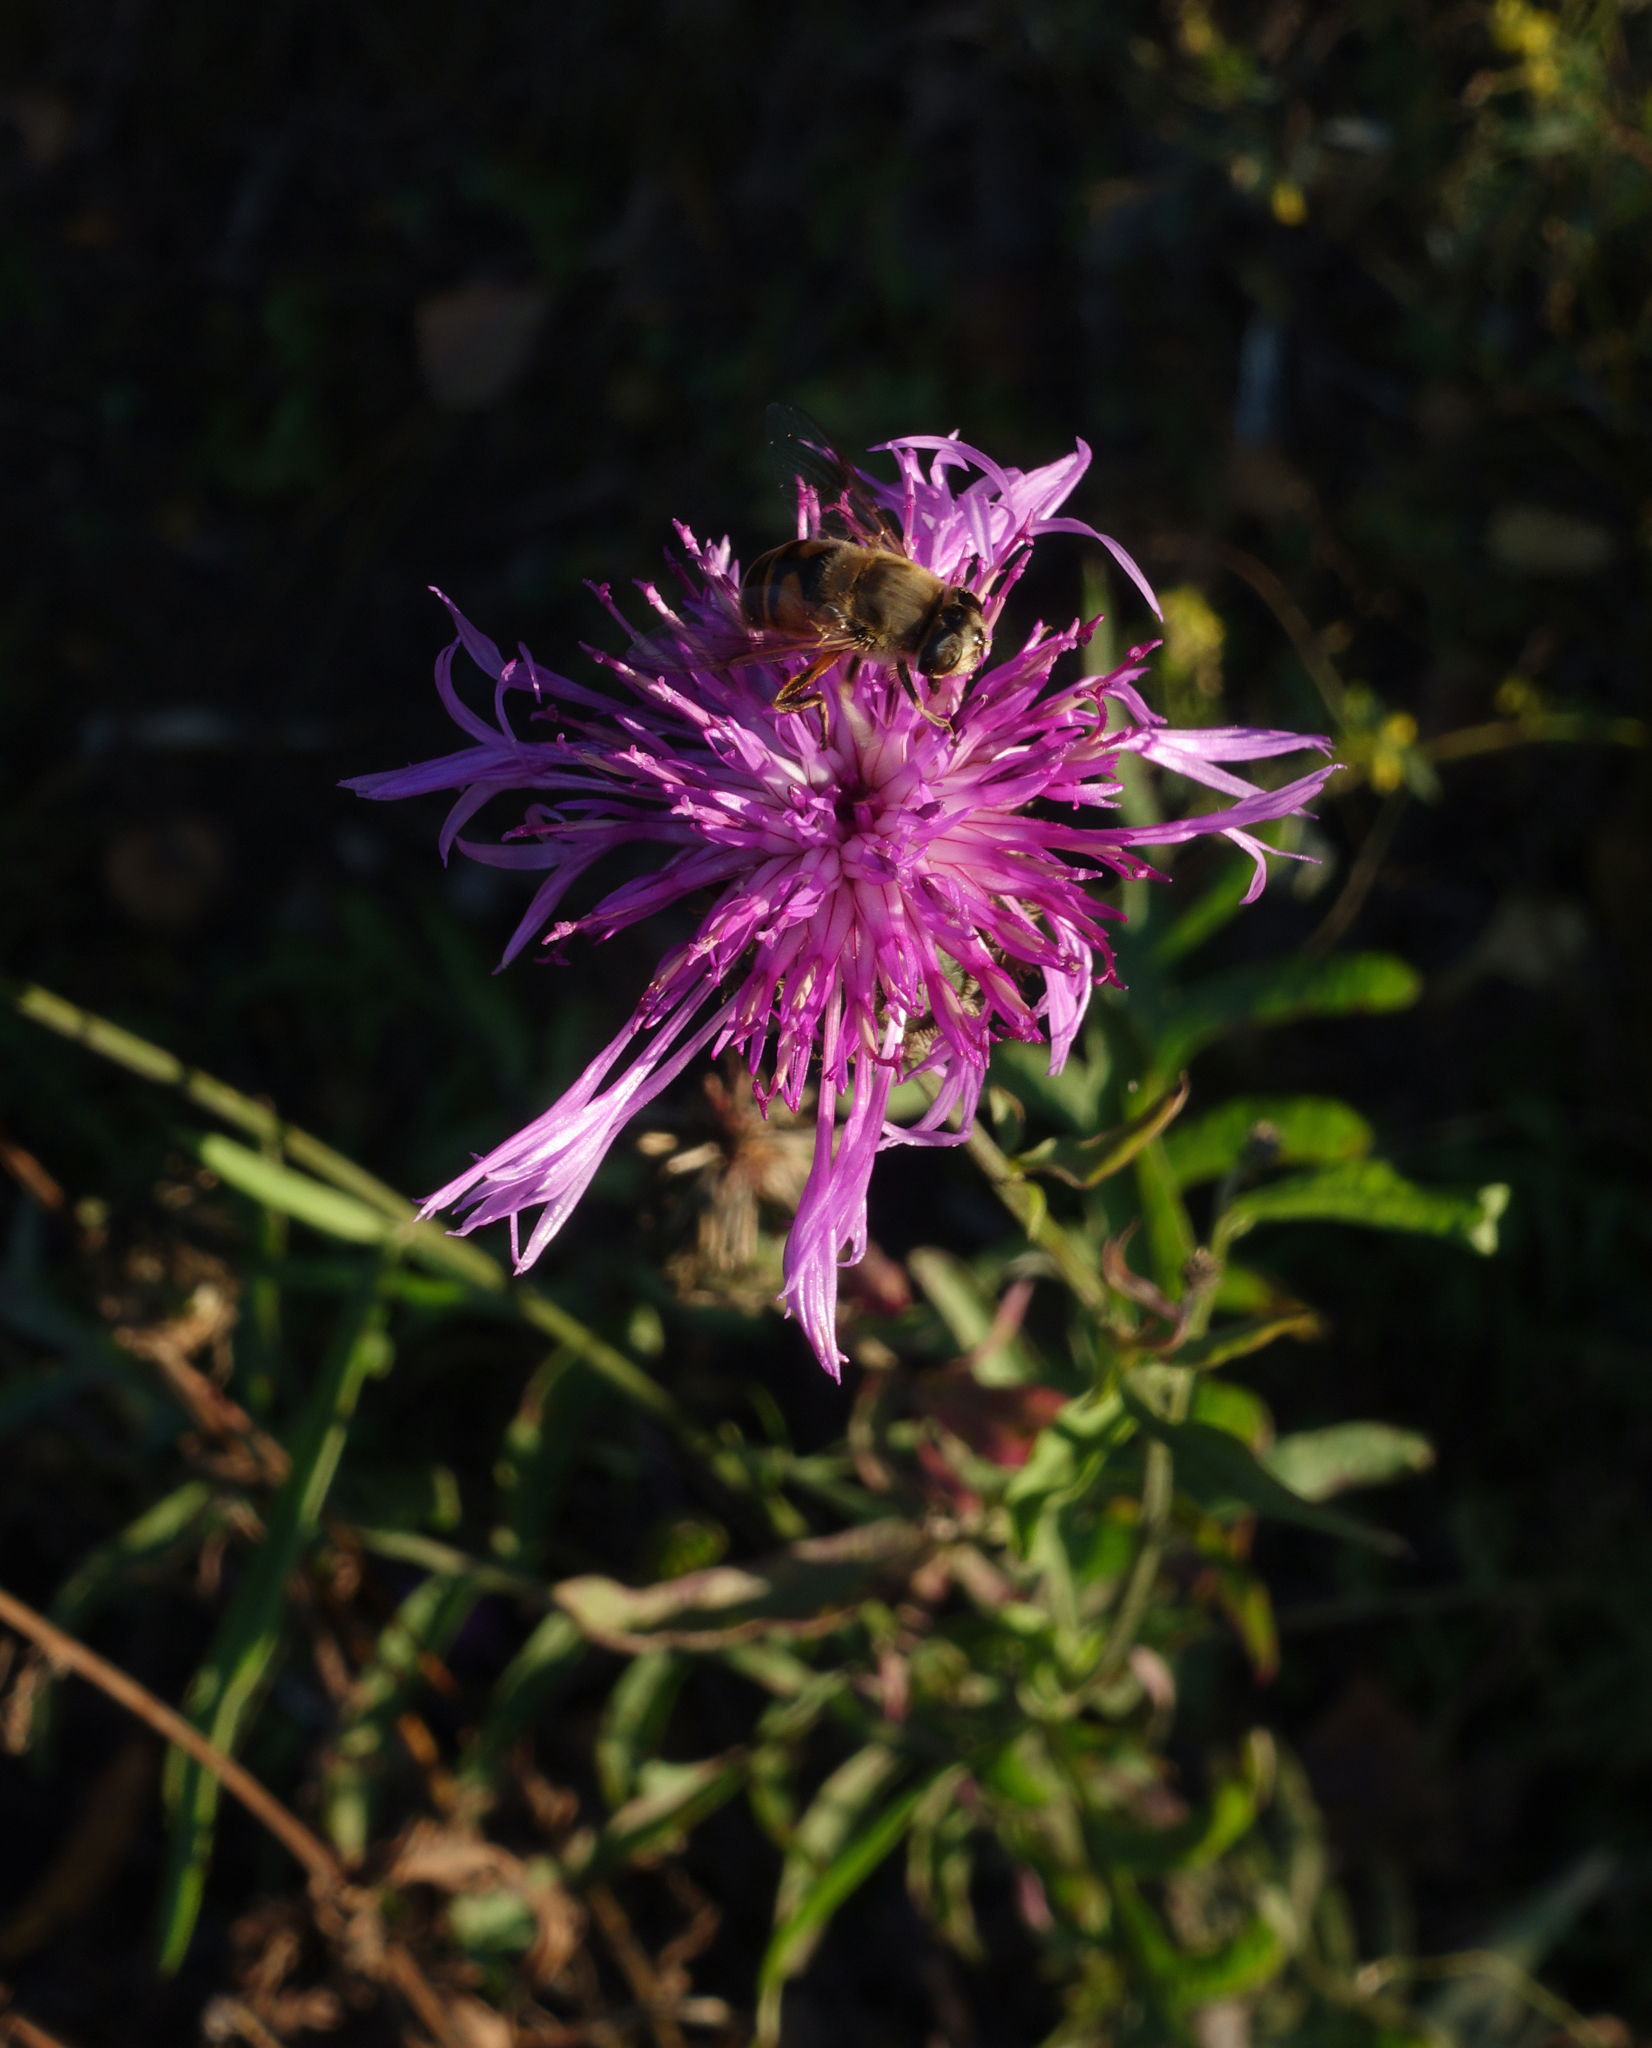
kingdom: Plantae
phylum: Tracheophyta
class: Magnoliopsida
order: Asterales
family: Asteraceae
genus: Centaurea
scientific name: Centaurea scabiosa
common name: Greater knapweed
